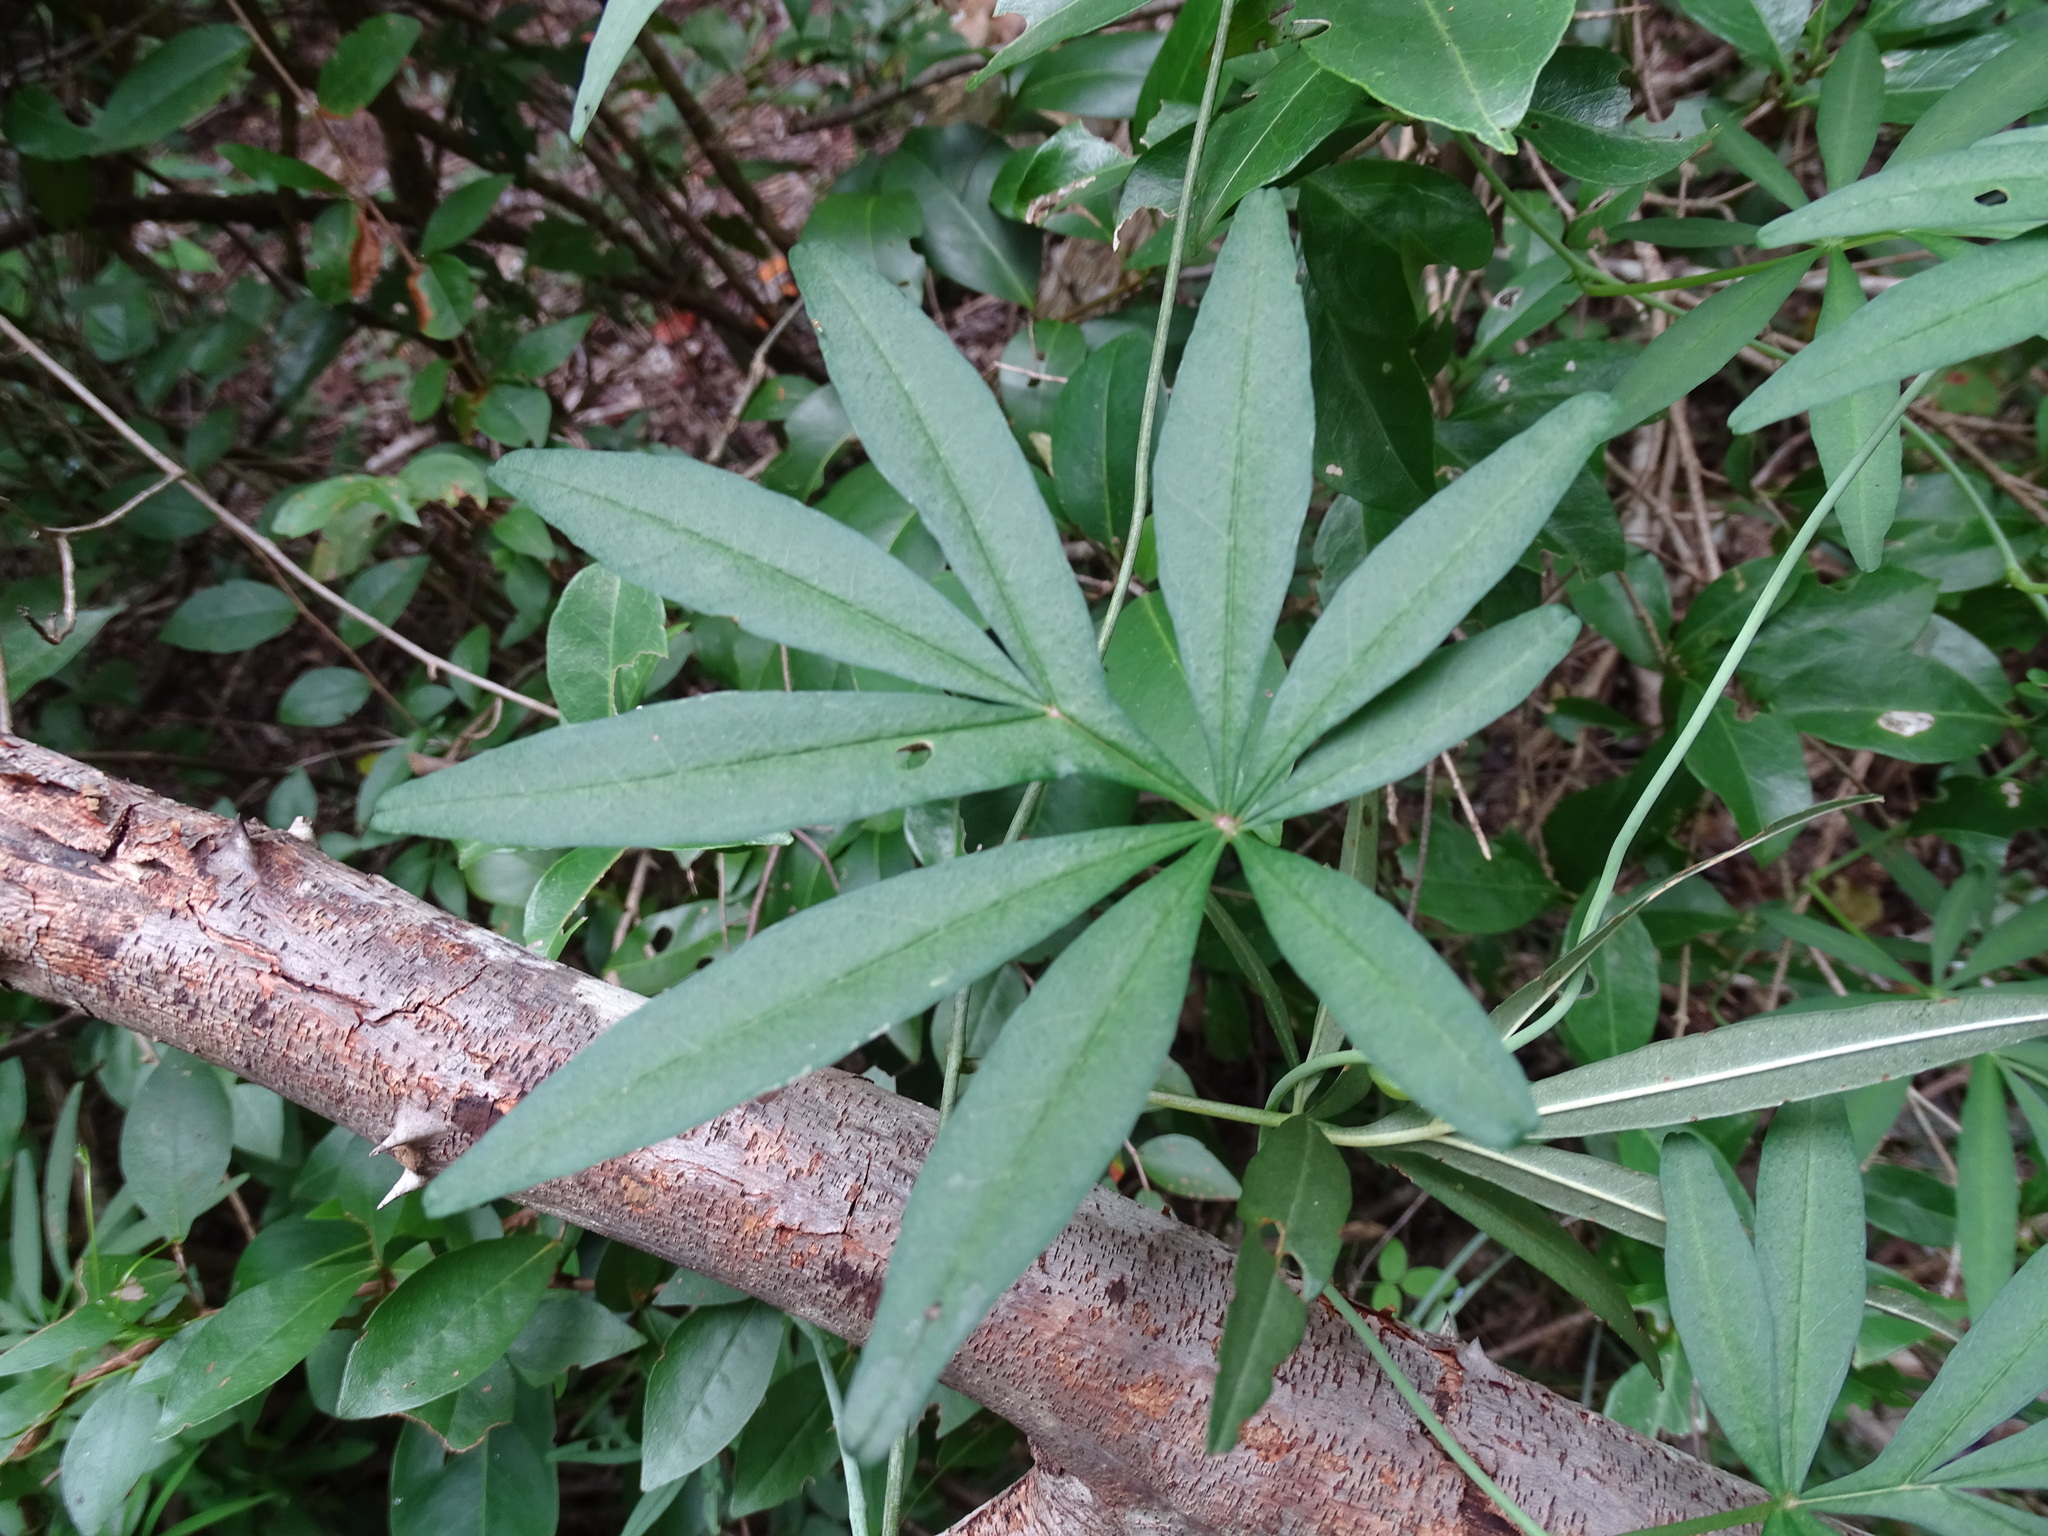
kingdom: Plantae
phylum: Tracheophyta
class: Magnoliopsida
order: Solanales
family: Convolvulaceae
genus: Ipomoea
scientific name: Ipomoea heterodoxa
